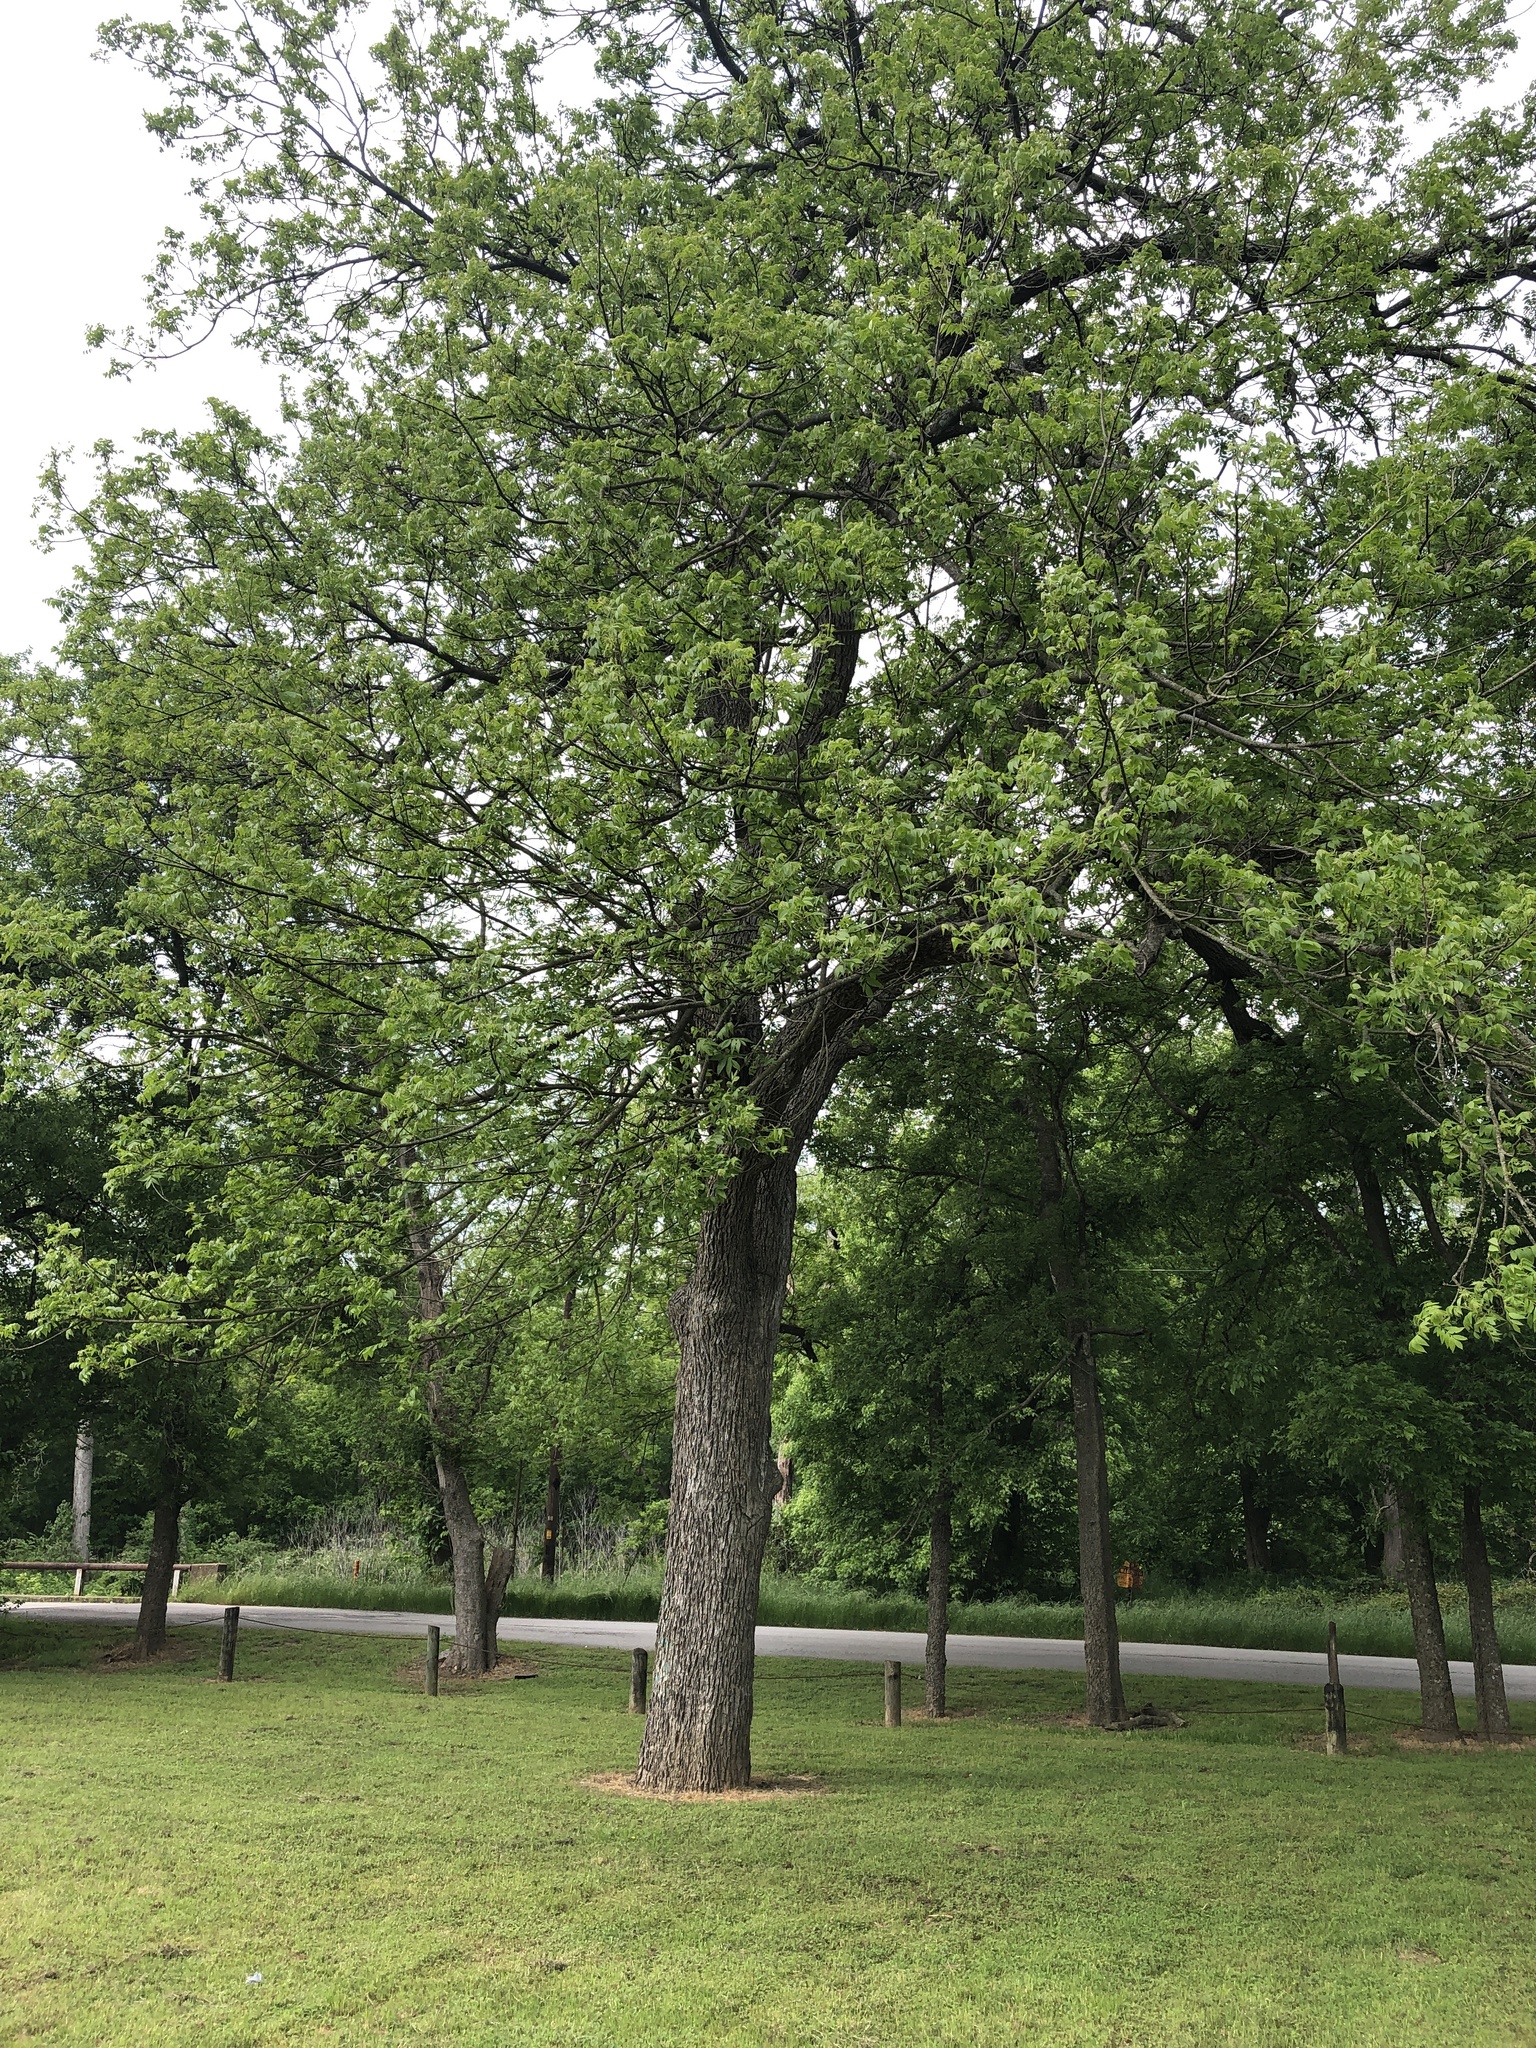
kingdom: Plantae
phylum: Tracheophyta
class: Magnoliopsida
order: Fagales
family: Juglandaceae
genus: Carya
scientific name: Carya illinoinensis
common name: Pecan
